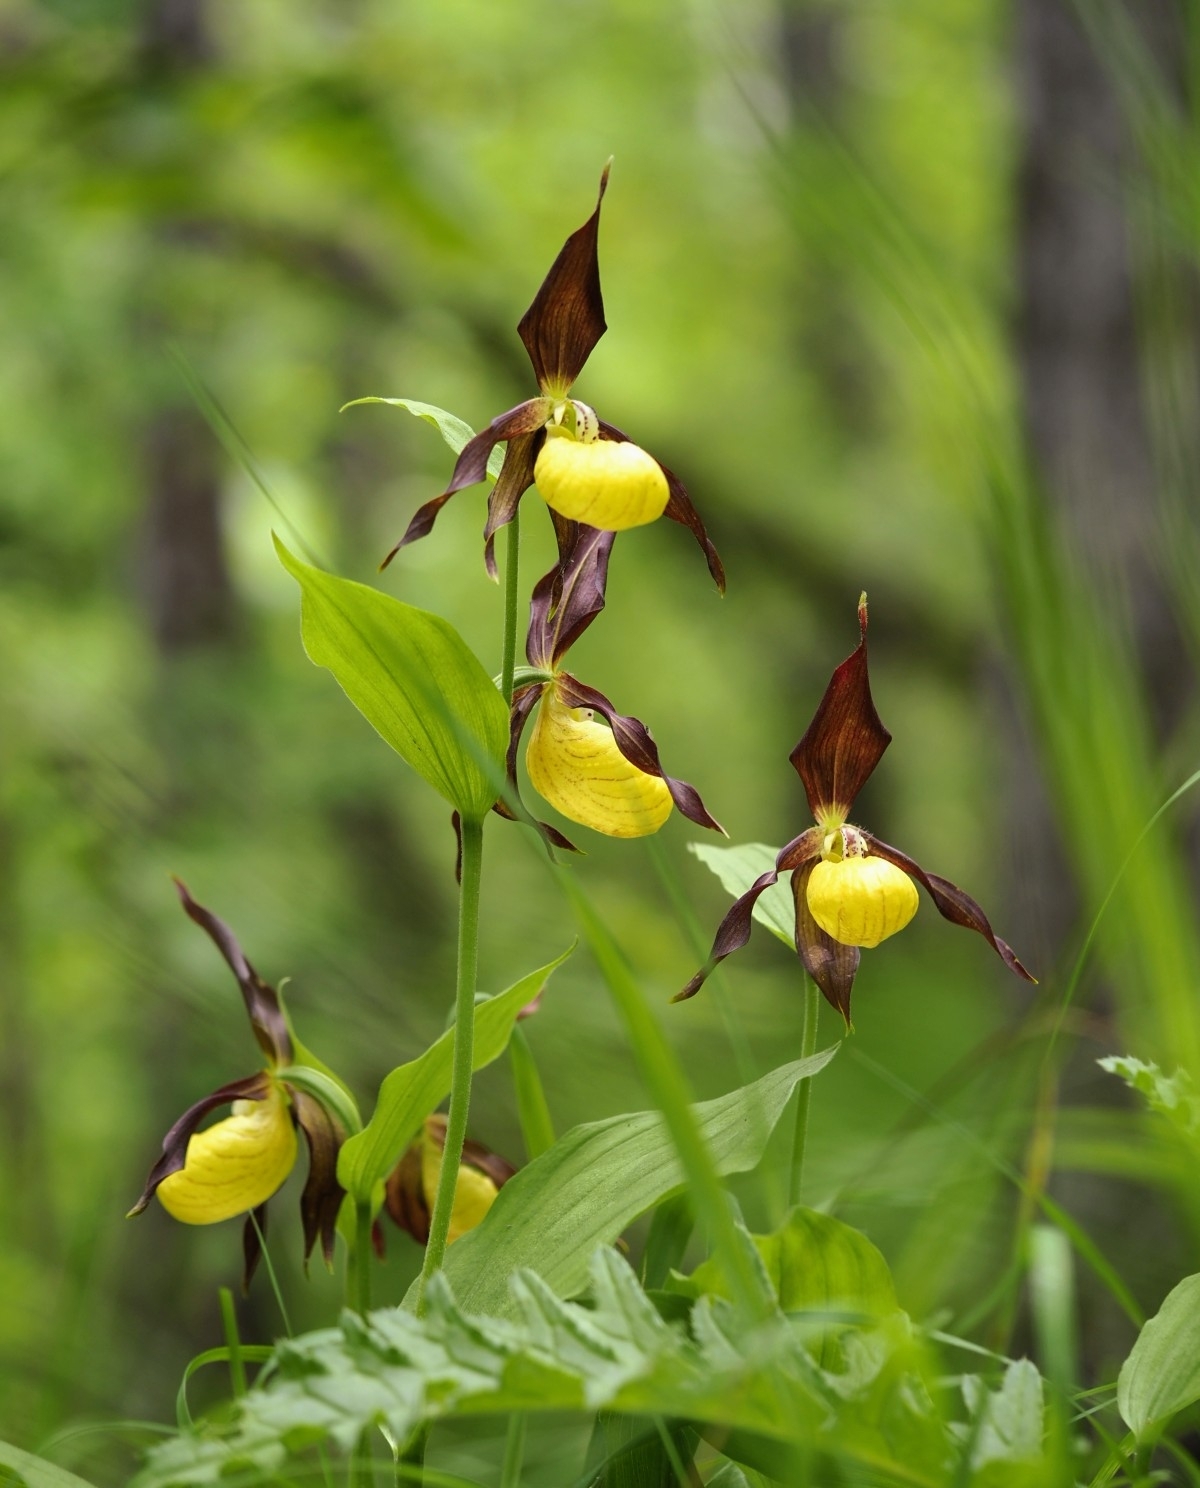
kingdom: Plantae
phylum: Tracheophyta
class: Liliopsida
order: Asparagales
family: Orchidaceae
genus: Cypripedium
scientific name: Cypripedium calceolus
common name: Lady's-slipper
